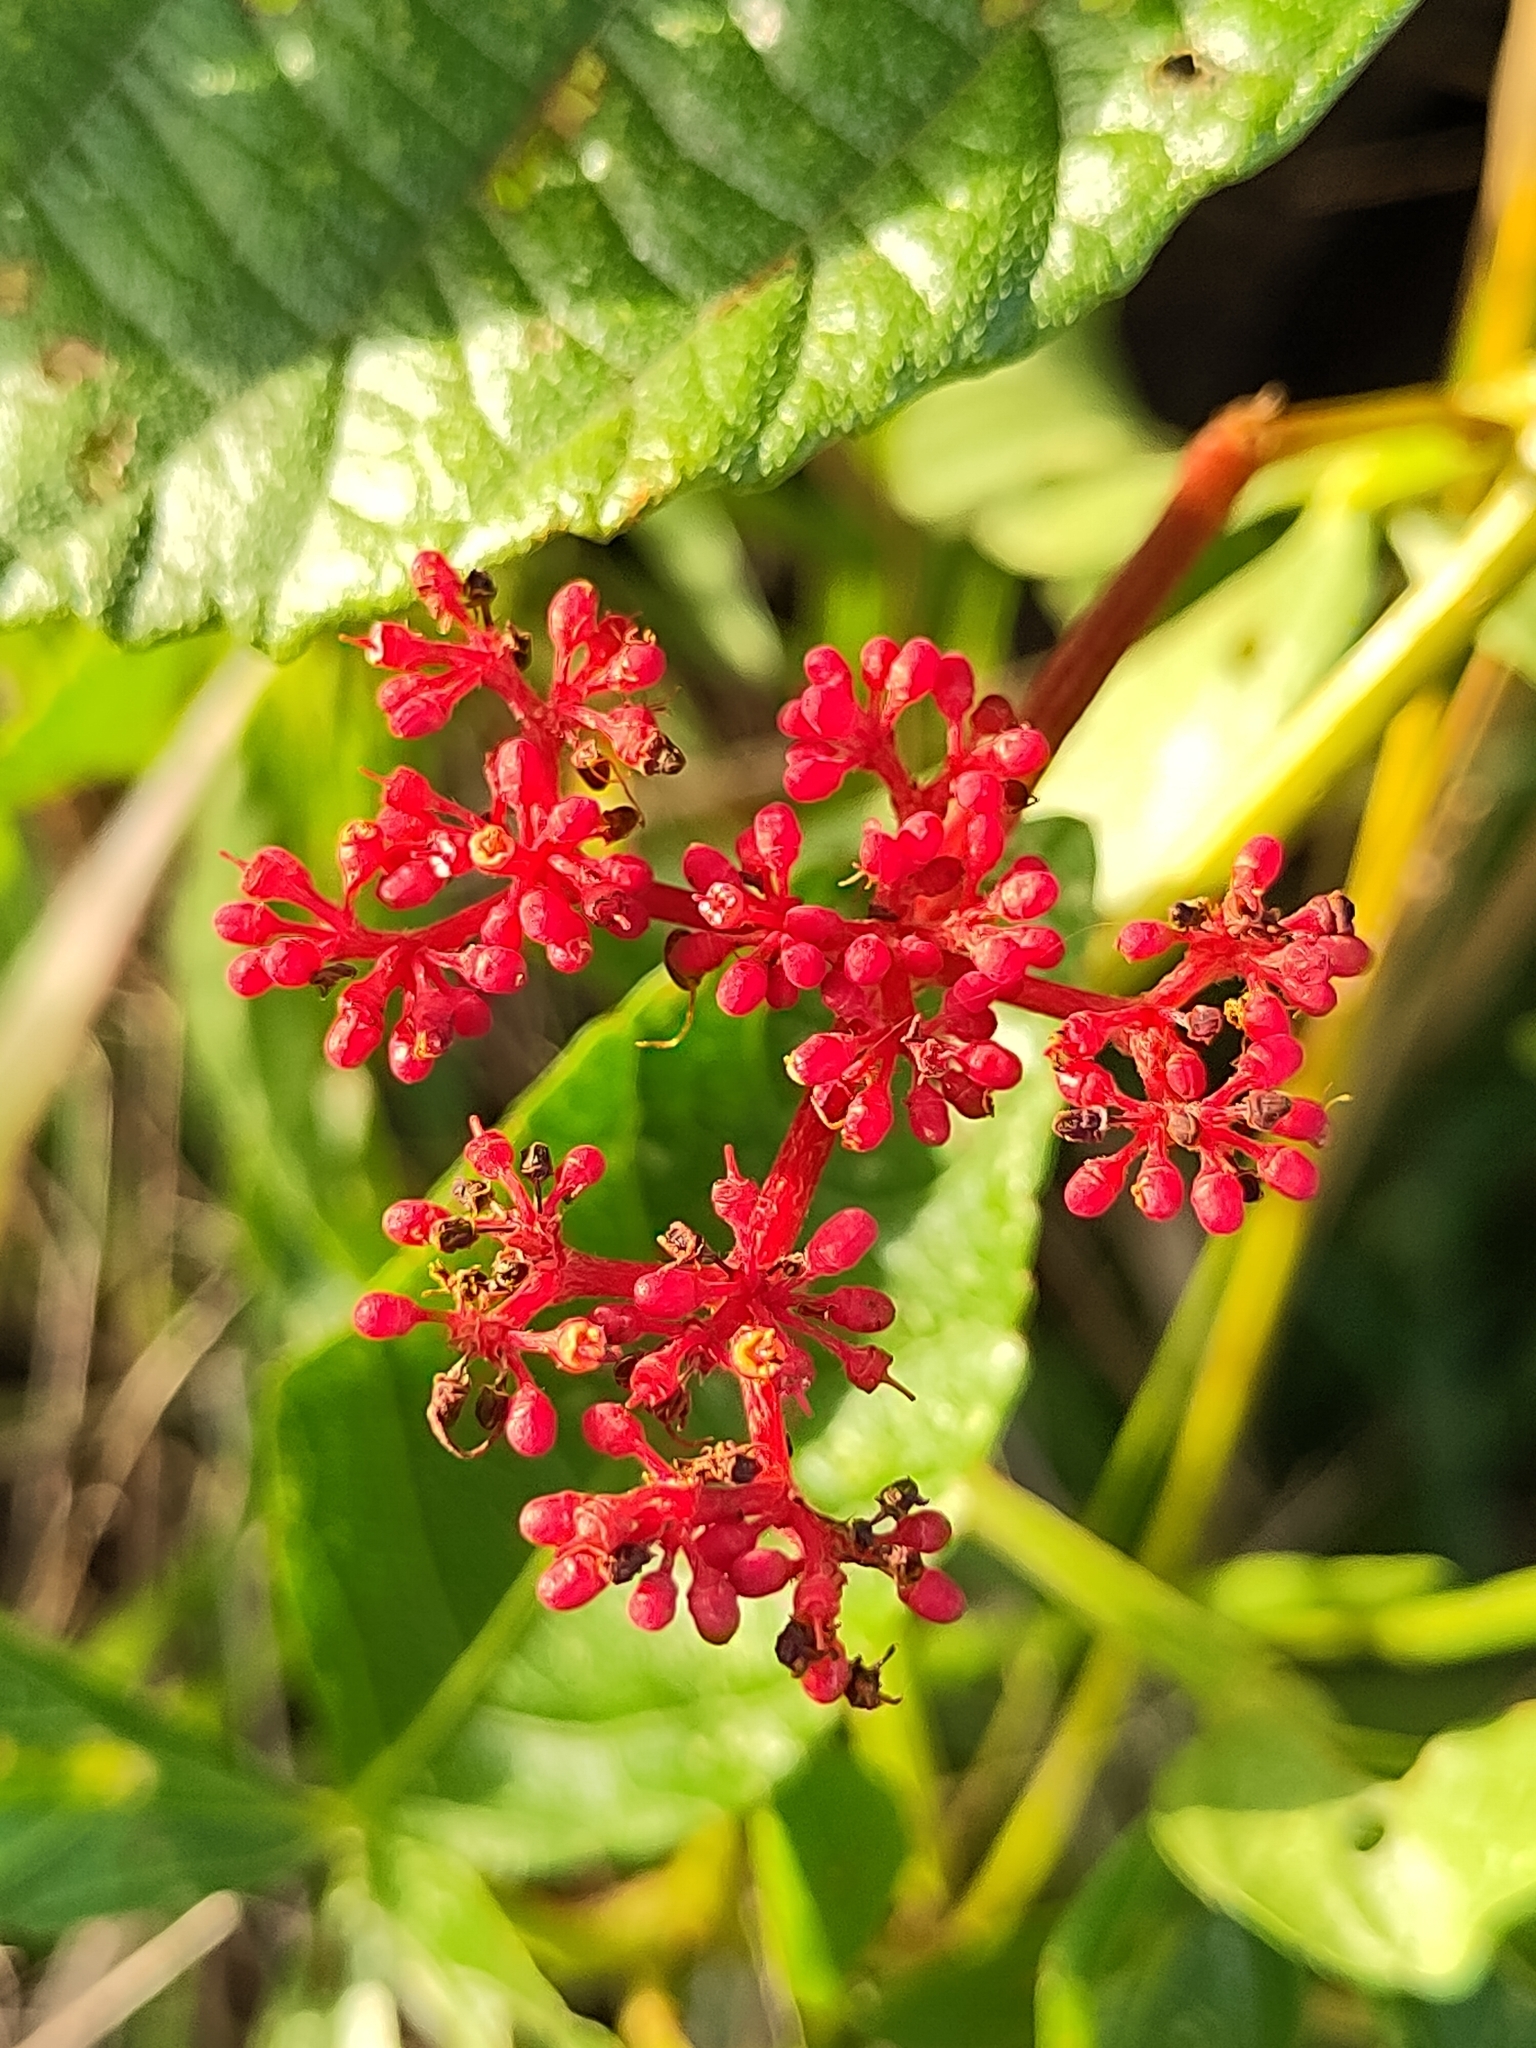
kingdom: Plantae
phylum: Tracheophyta
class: Magnoliopsida
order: Vitales
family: Vitaceae
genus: Cissus
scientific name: Cissus erosa
